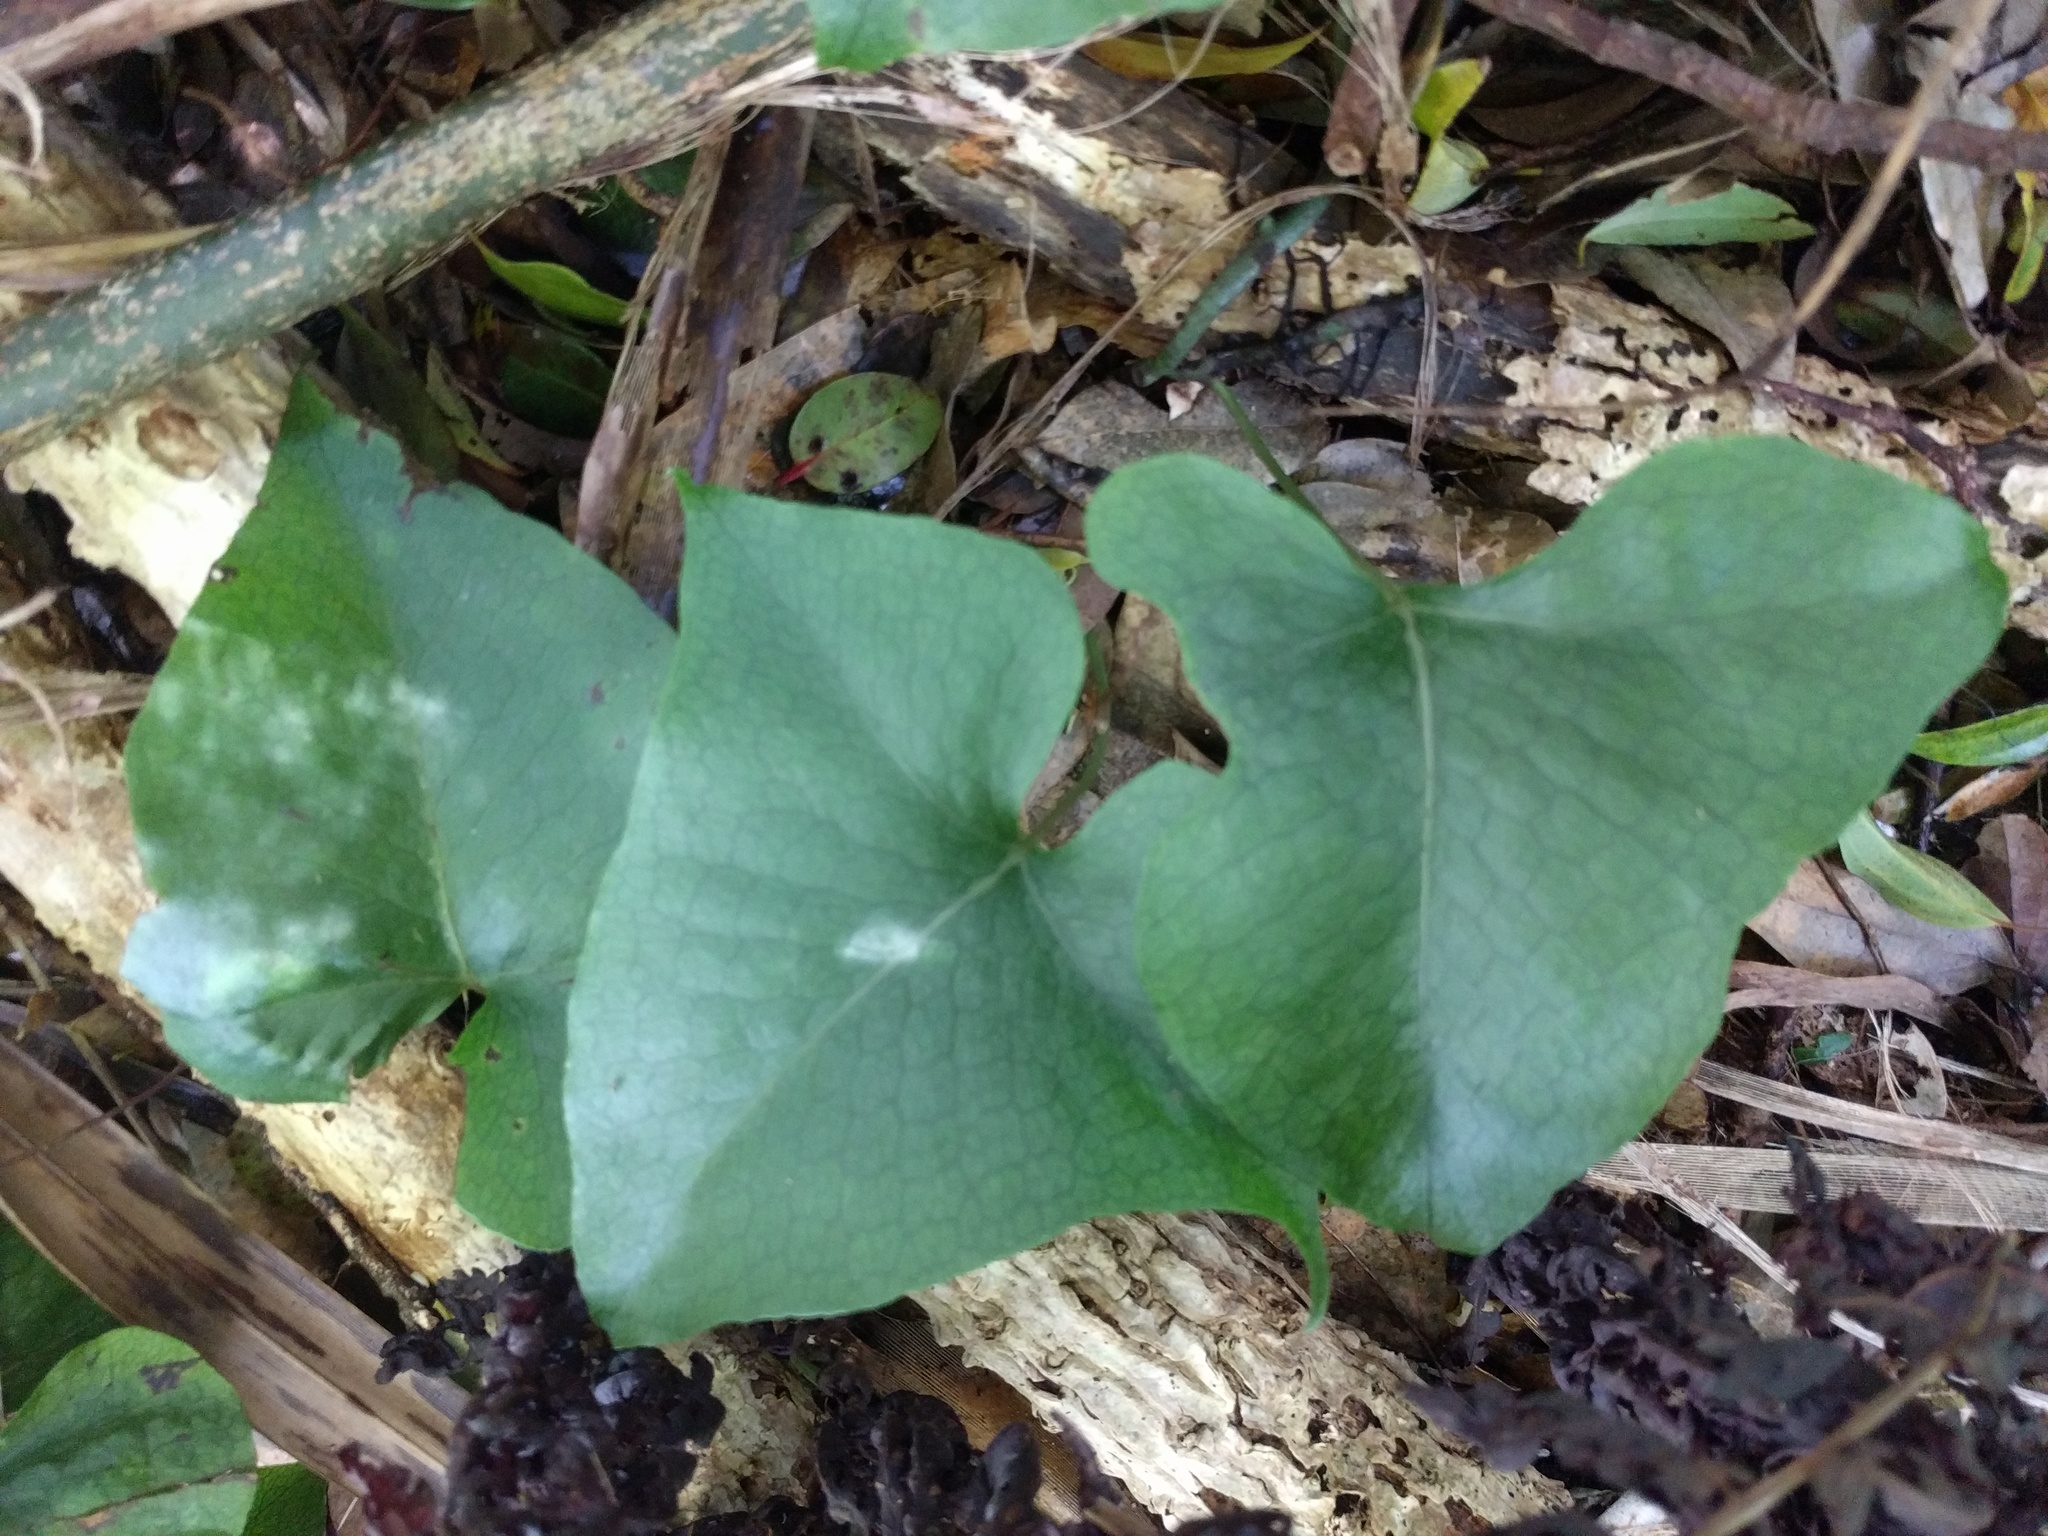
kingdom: Plantae
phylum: Tracheophyta
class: Polypodiopsida
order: Polypodiales
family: Polypodiaceae
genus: Microsorum
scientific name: Microsorum spectrum
